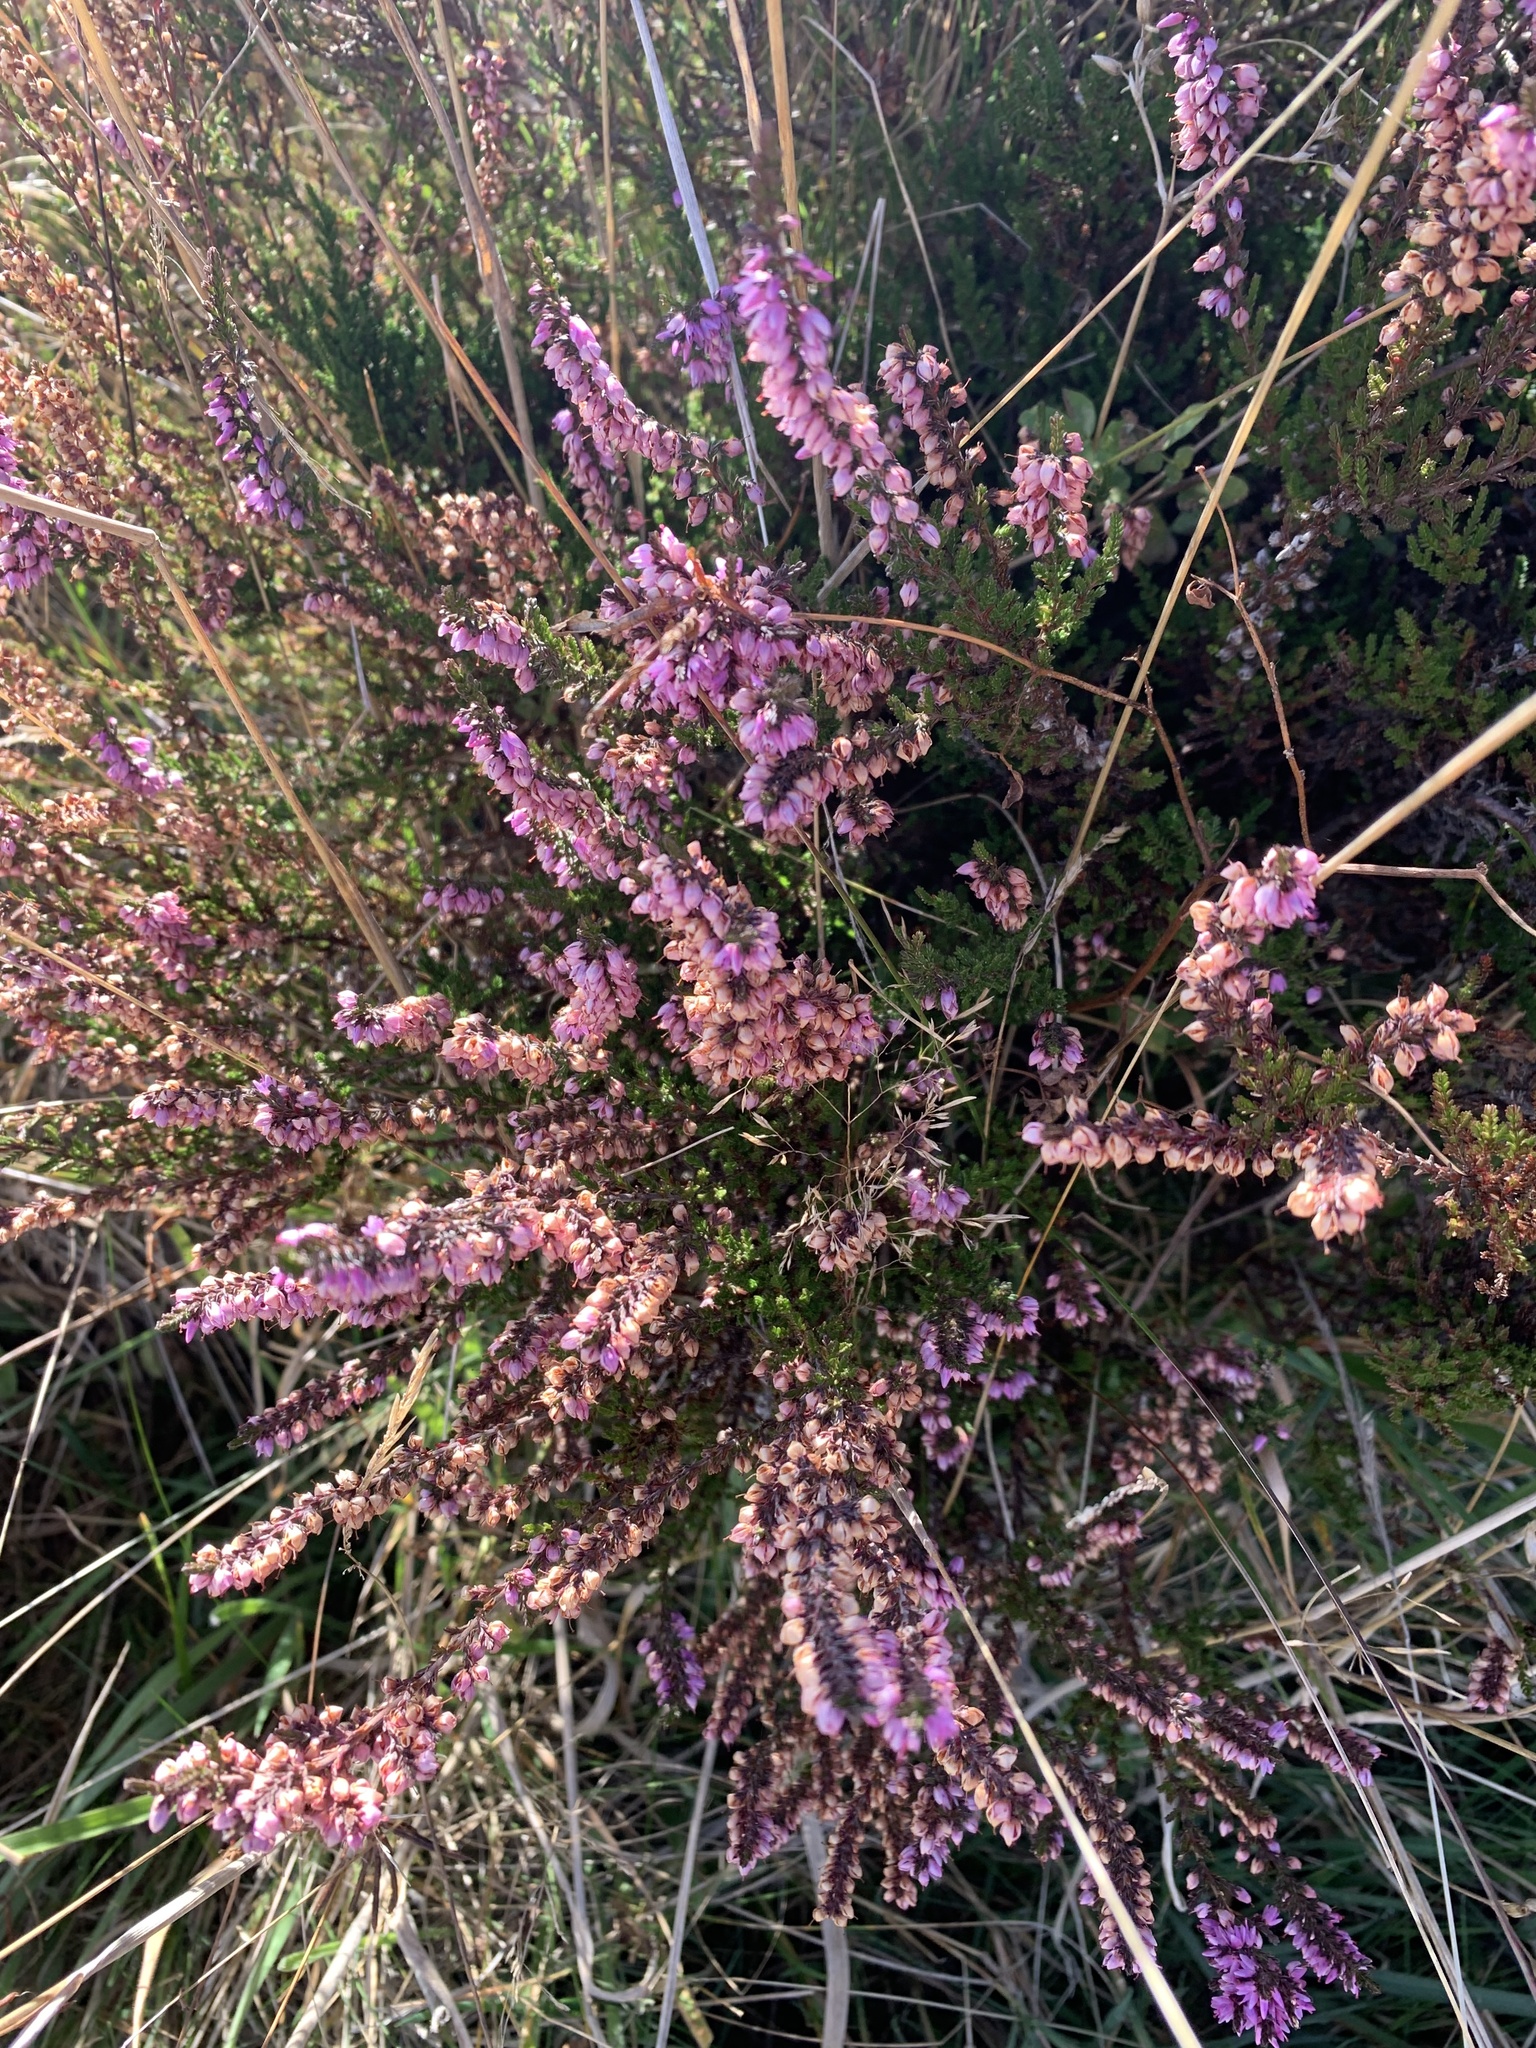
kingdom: Plantae
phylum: Tracheophyta
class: Magnoliopsida
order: Ericales
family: Ericaceae
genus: Calluna
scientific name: Calluna vulgaris
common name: Heather
